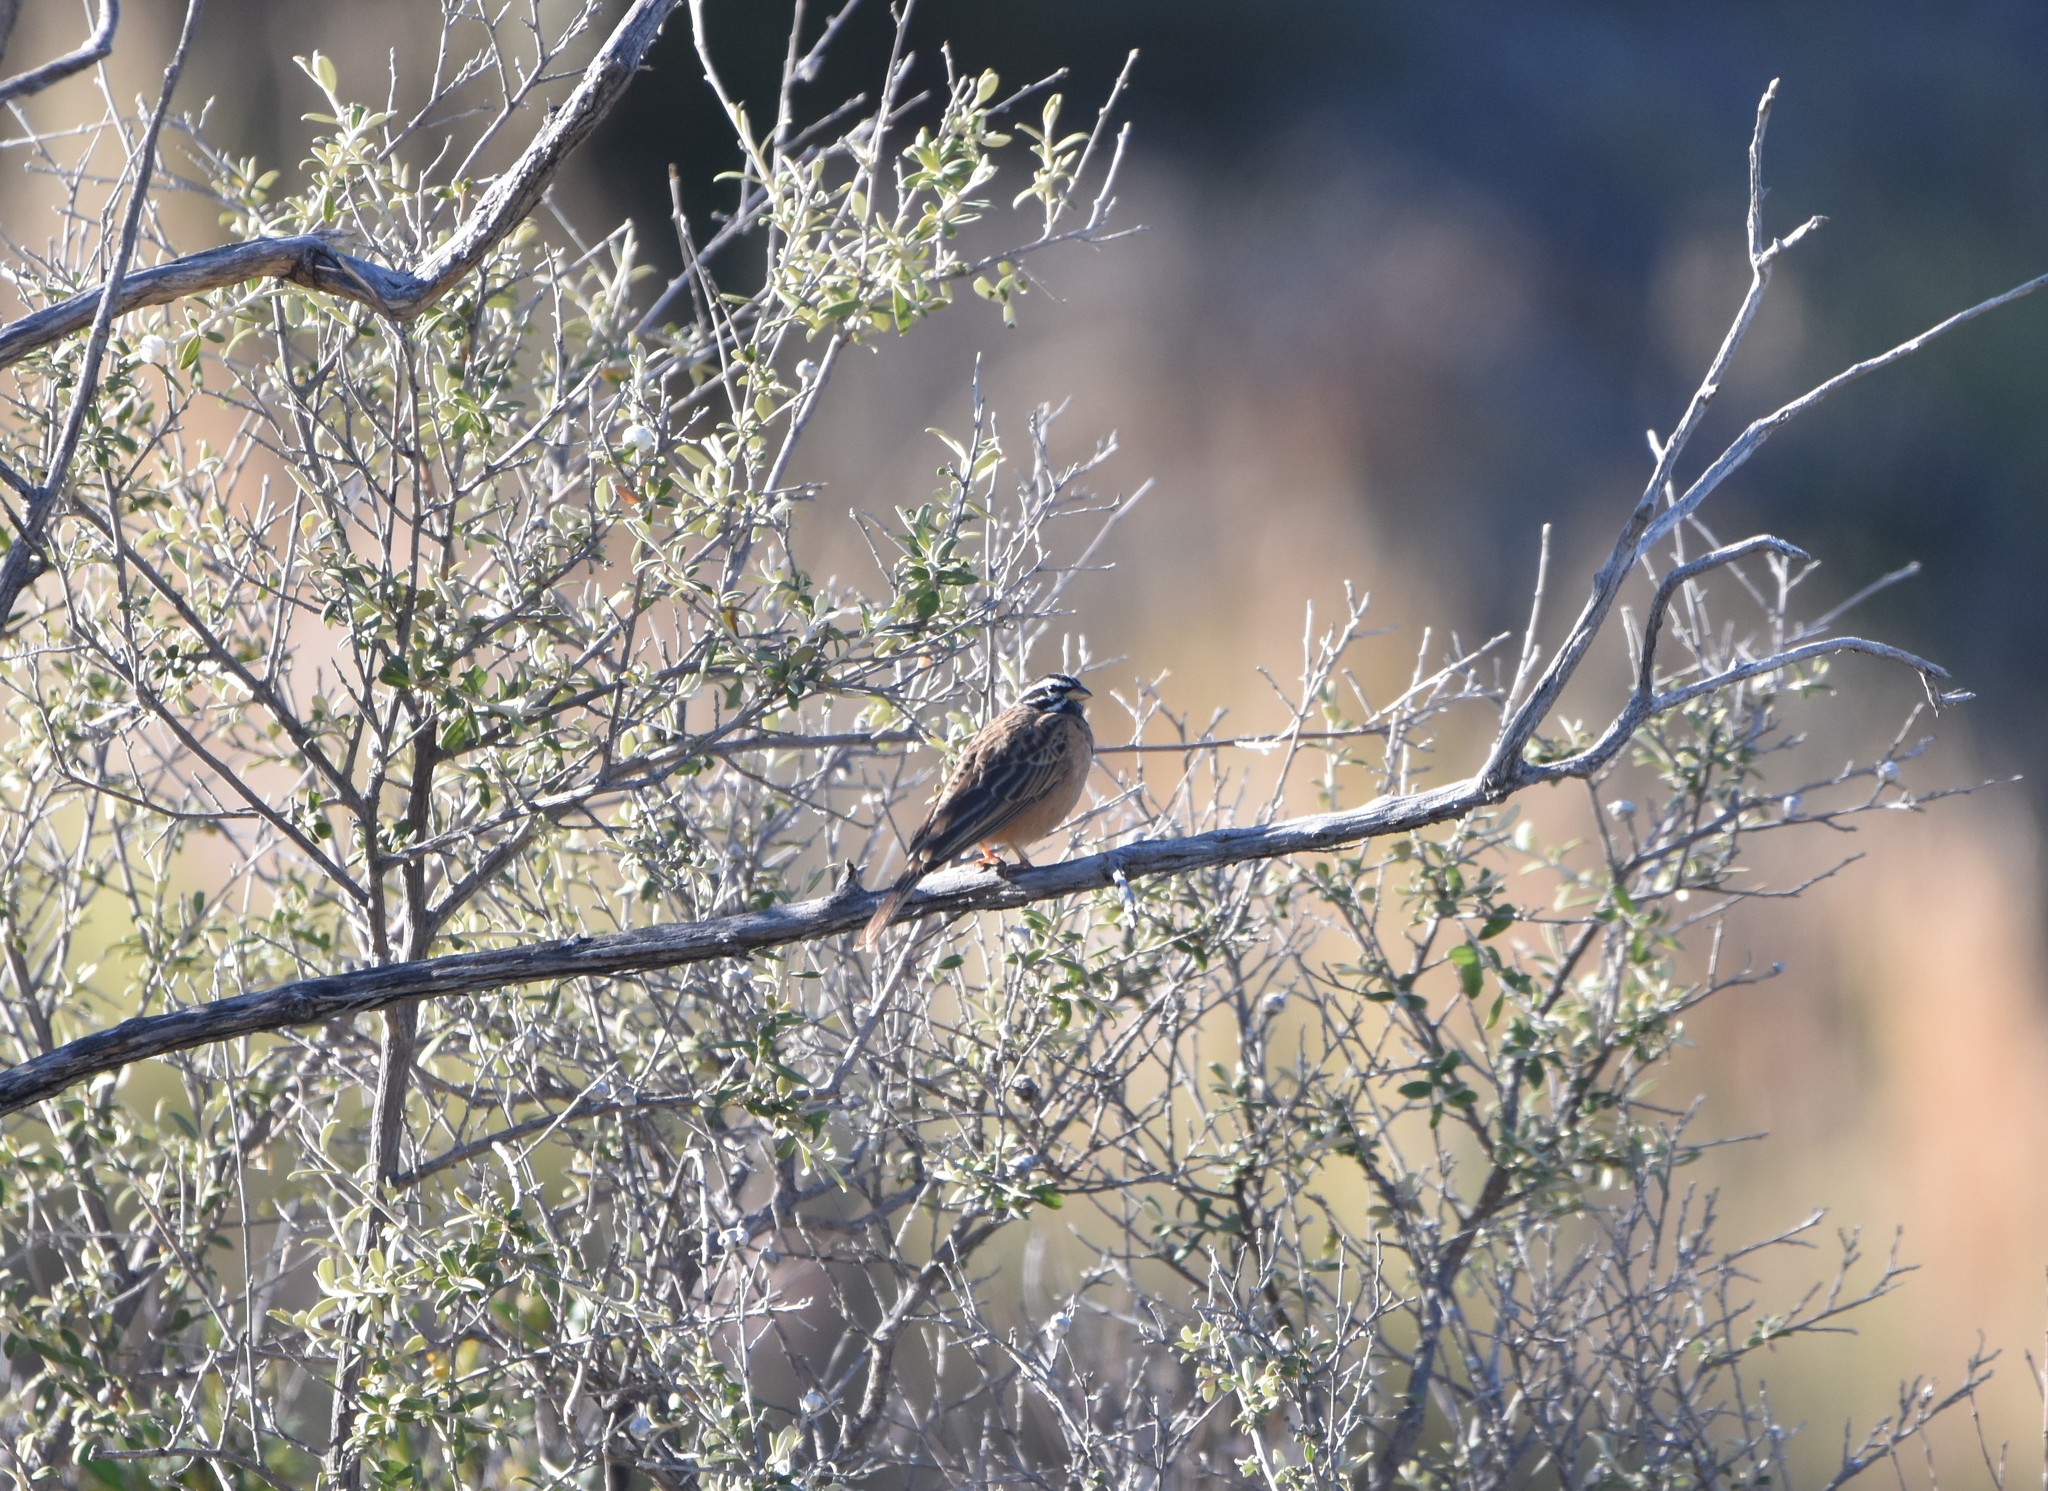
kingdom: Animalia
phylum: Chordata
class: Aves
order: Passeriformes
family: Emberizidae
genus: Emberiza
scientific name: Emberiza tahapisi
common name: Cinnamon-breasted bunting
